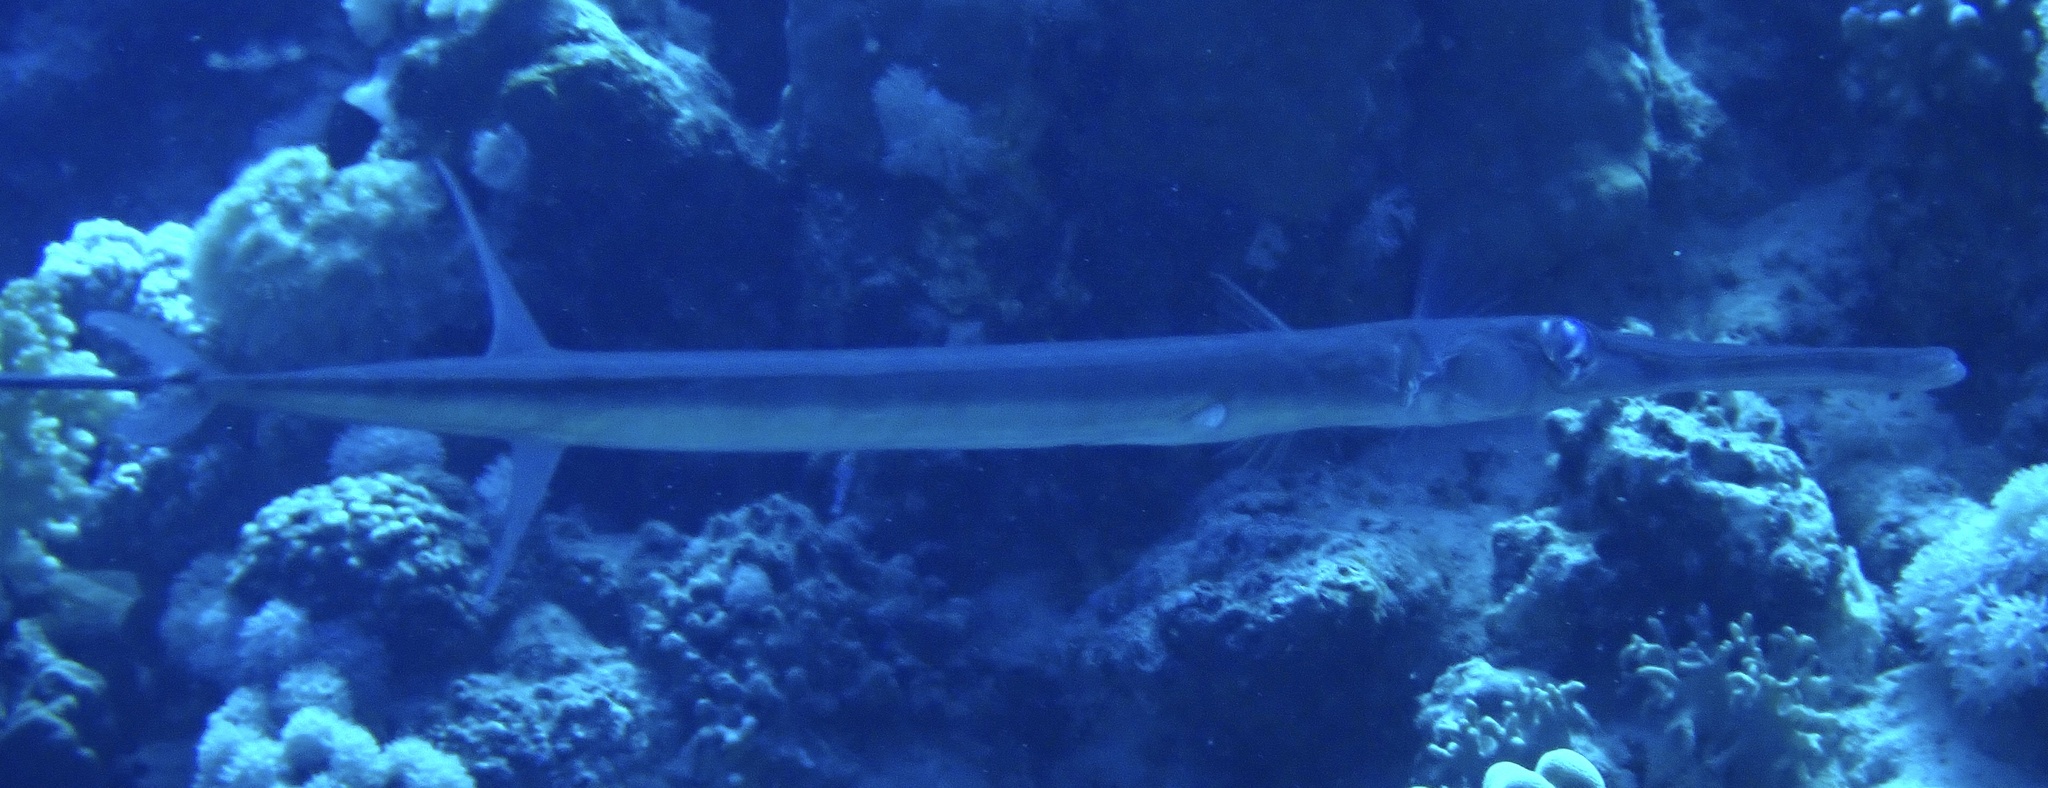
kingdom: Animalia
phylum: Chordata
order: Syngnathiformes
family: Fistulariidae
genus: Fistularia
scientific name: Fistularia commersonii
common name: Bluespotted cornetfish
